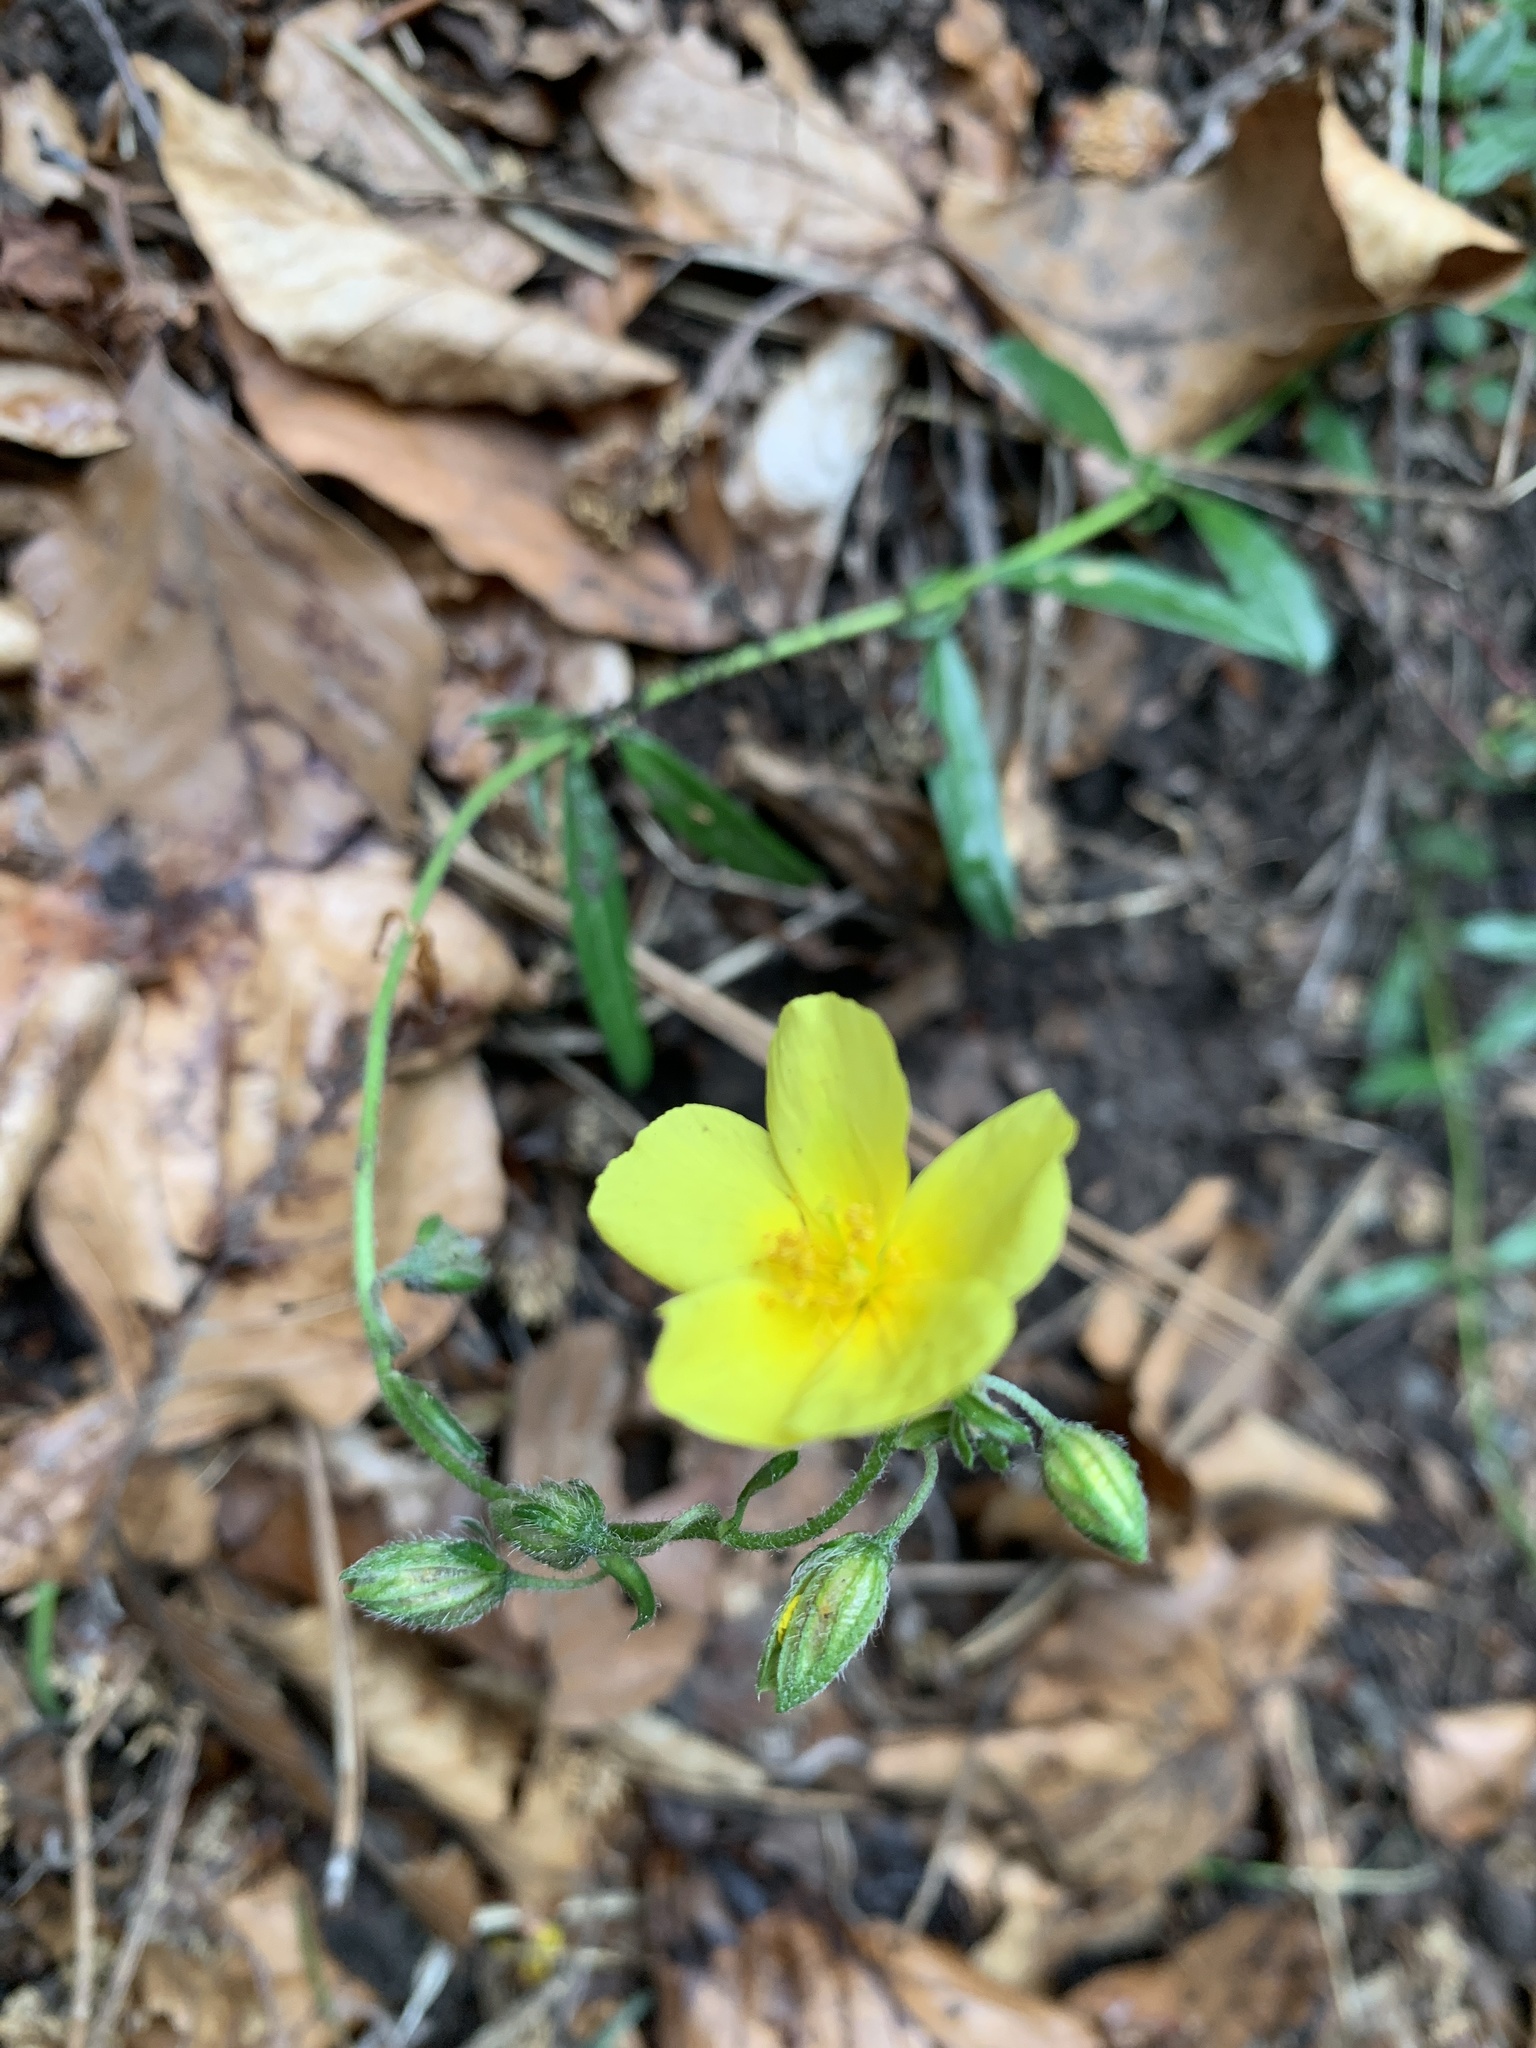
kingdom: Plantae
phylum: Tracheophyta
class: Magnoliopsida
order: Malvales
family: Cistaceae
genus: Helianthemum
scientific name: Helianthemum nummularium
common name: Common rock-rose
